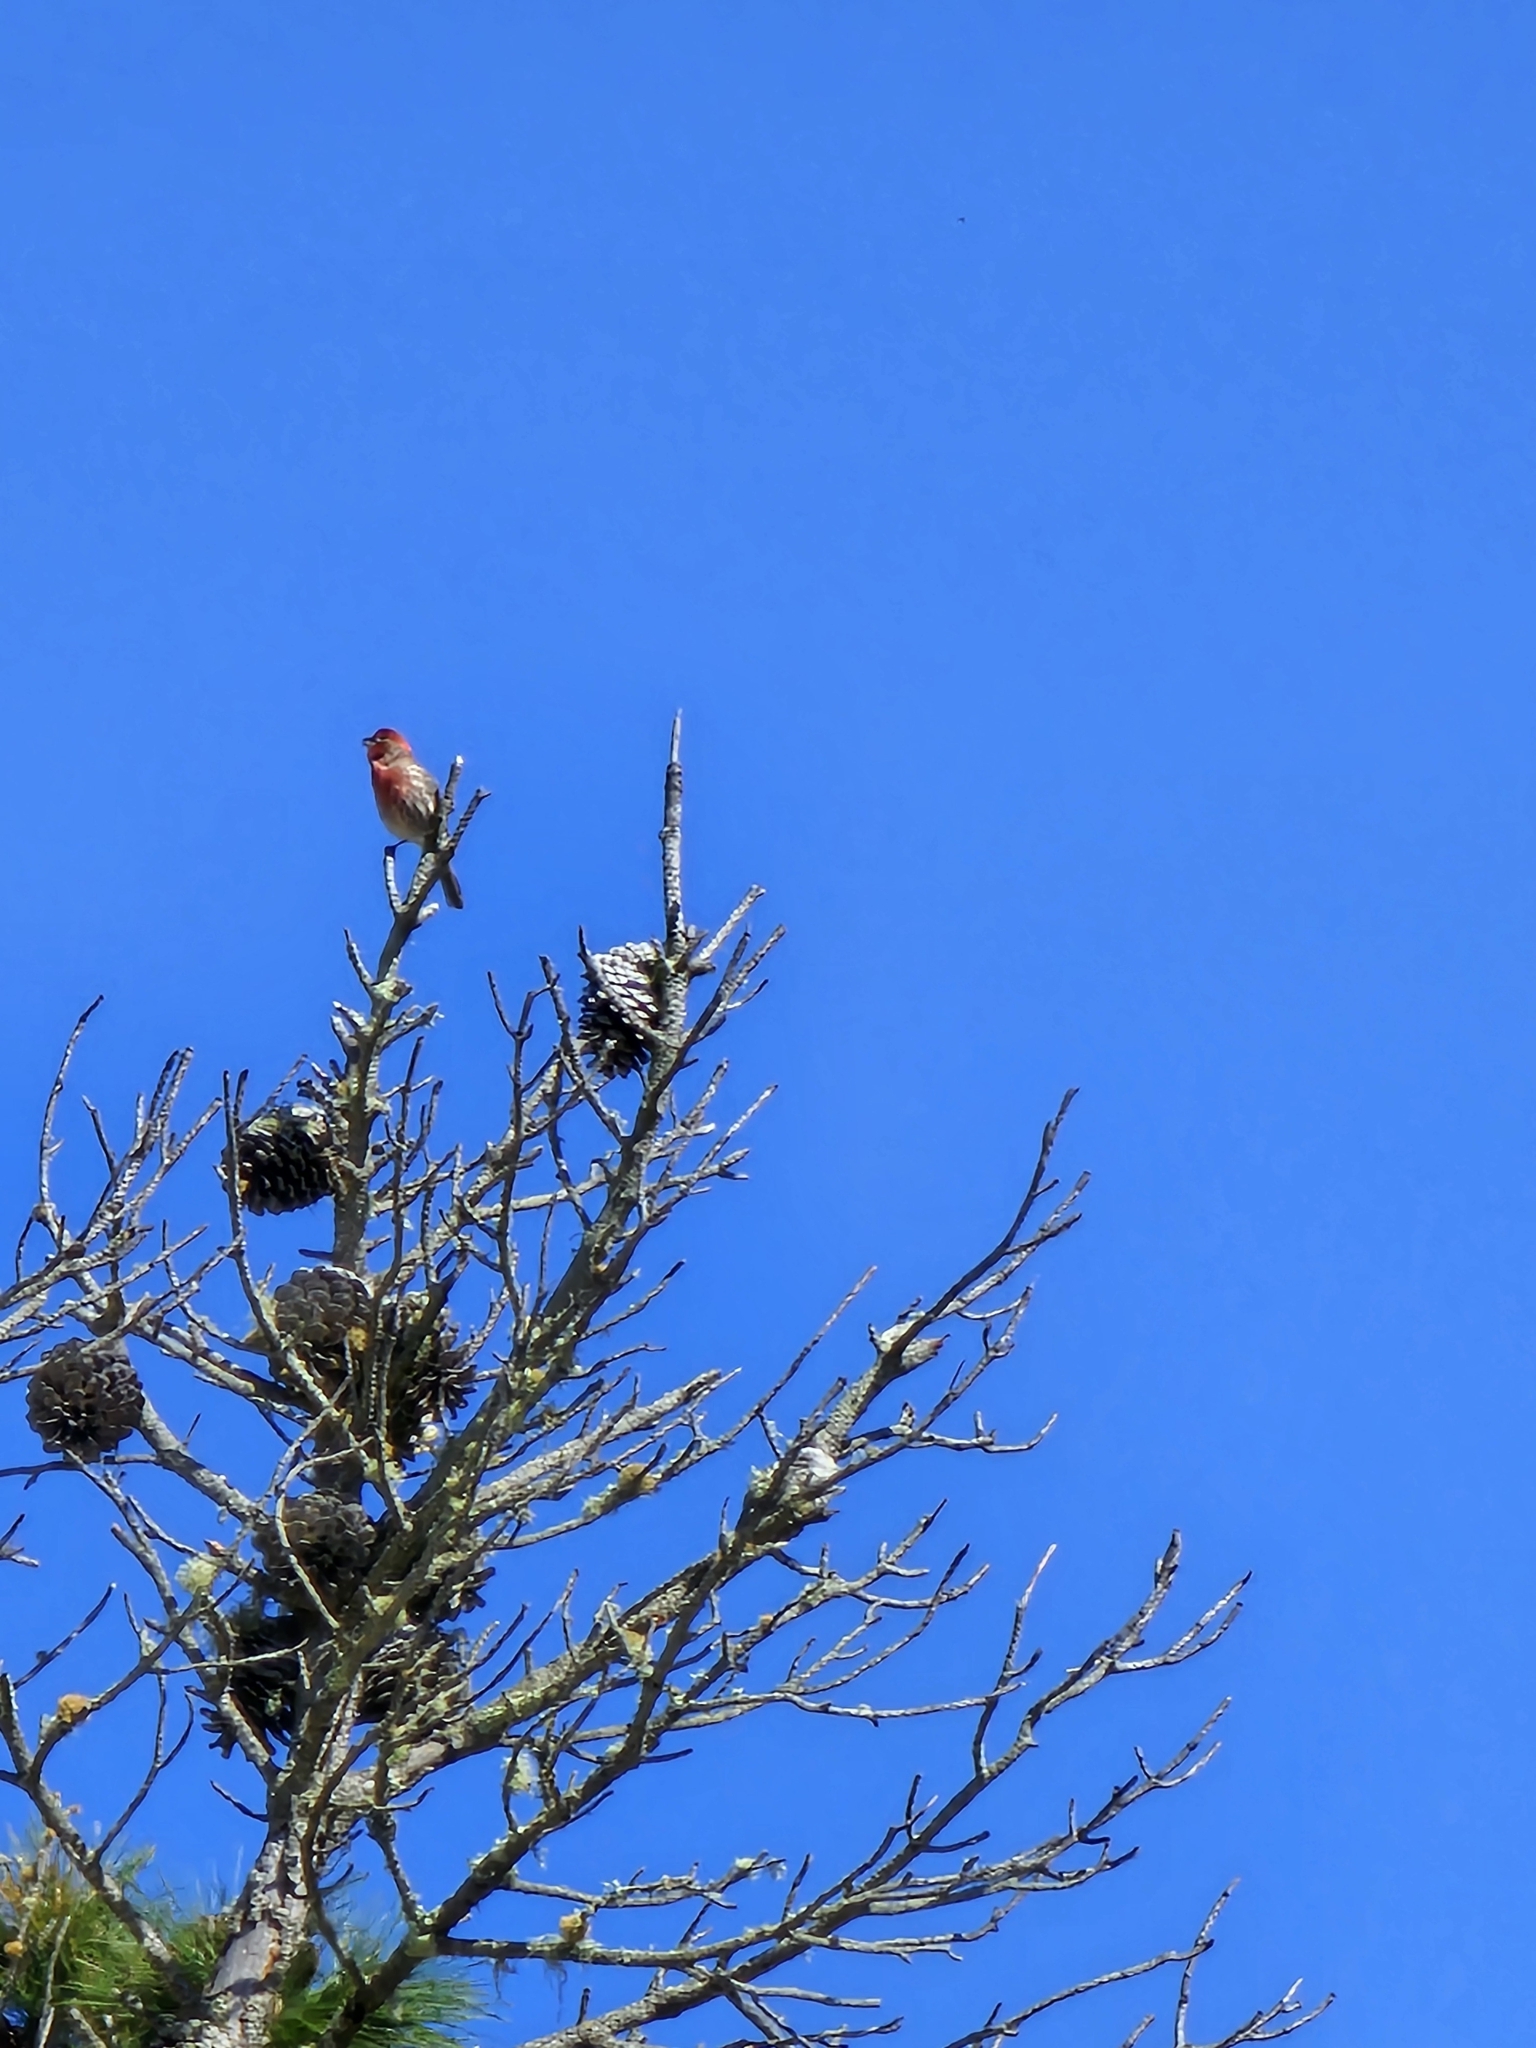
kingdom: Animalia
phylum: Chordata
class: Aves
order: Passeriformes
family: Fringillidae
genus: Haemorhous
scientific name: Haemorhous mexicanus
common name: House finch
